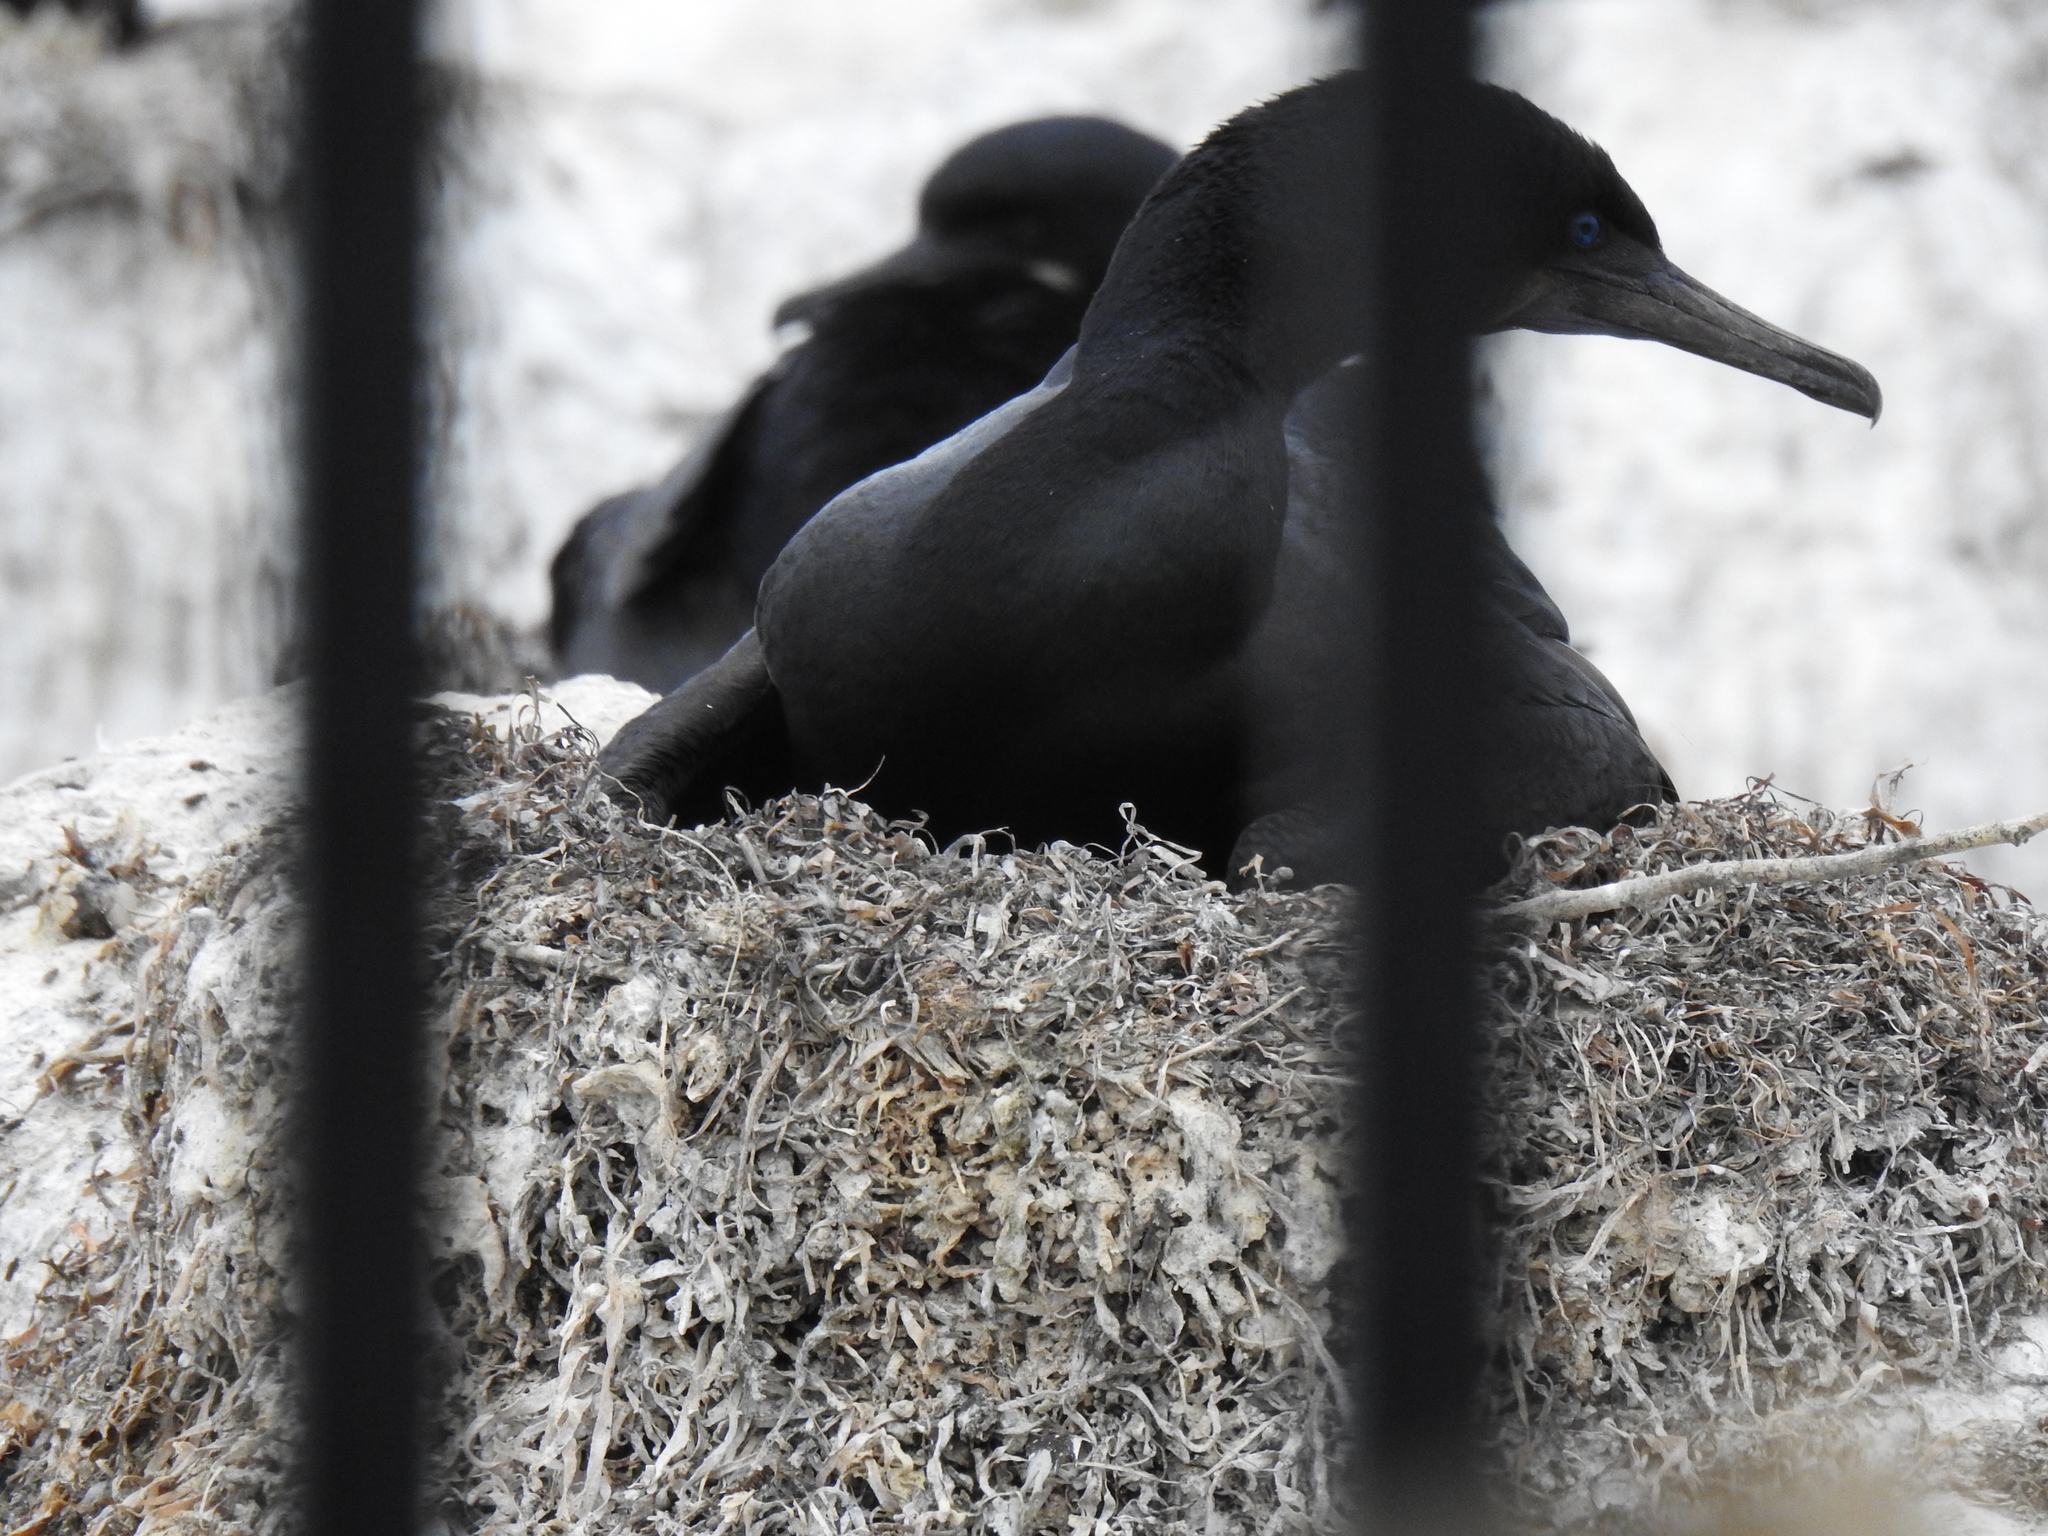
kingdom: Animalia
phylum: Chordata
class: Aves
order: Suliformes
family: Phalacrocoracidae
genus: Urile
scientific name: Urile penicillatus
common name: Brandt's cormorant
